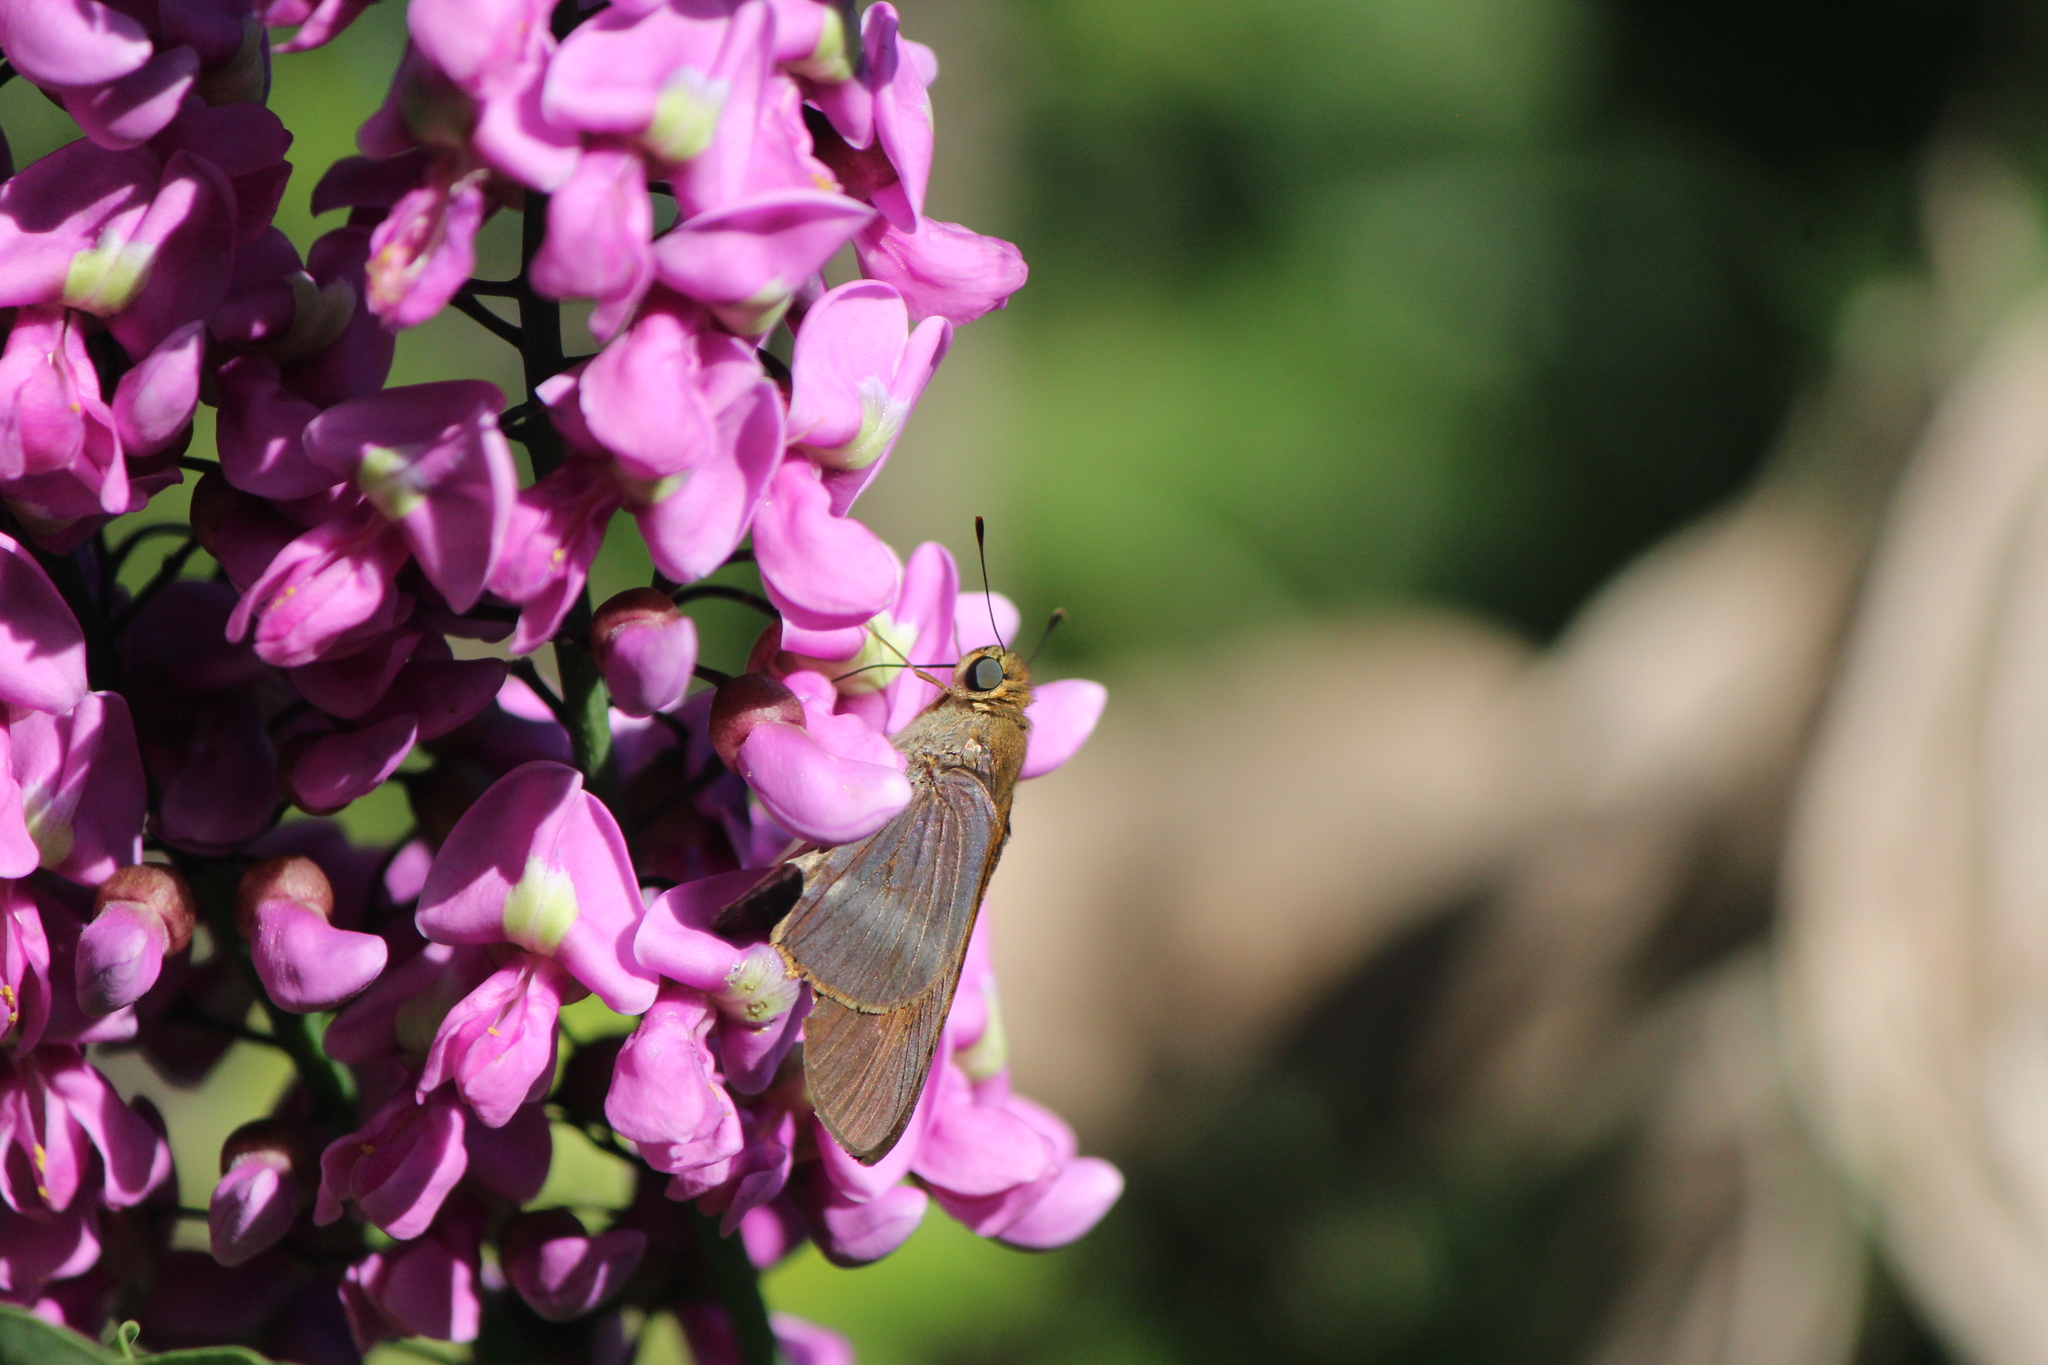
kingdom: Animalia
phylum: Arthropoda
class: Insecta
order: Lepidoptera
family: Hesperiidae
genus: Panoquina
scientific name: Panoquina fusina
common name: Evans' skipper
